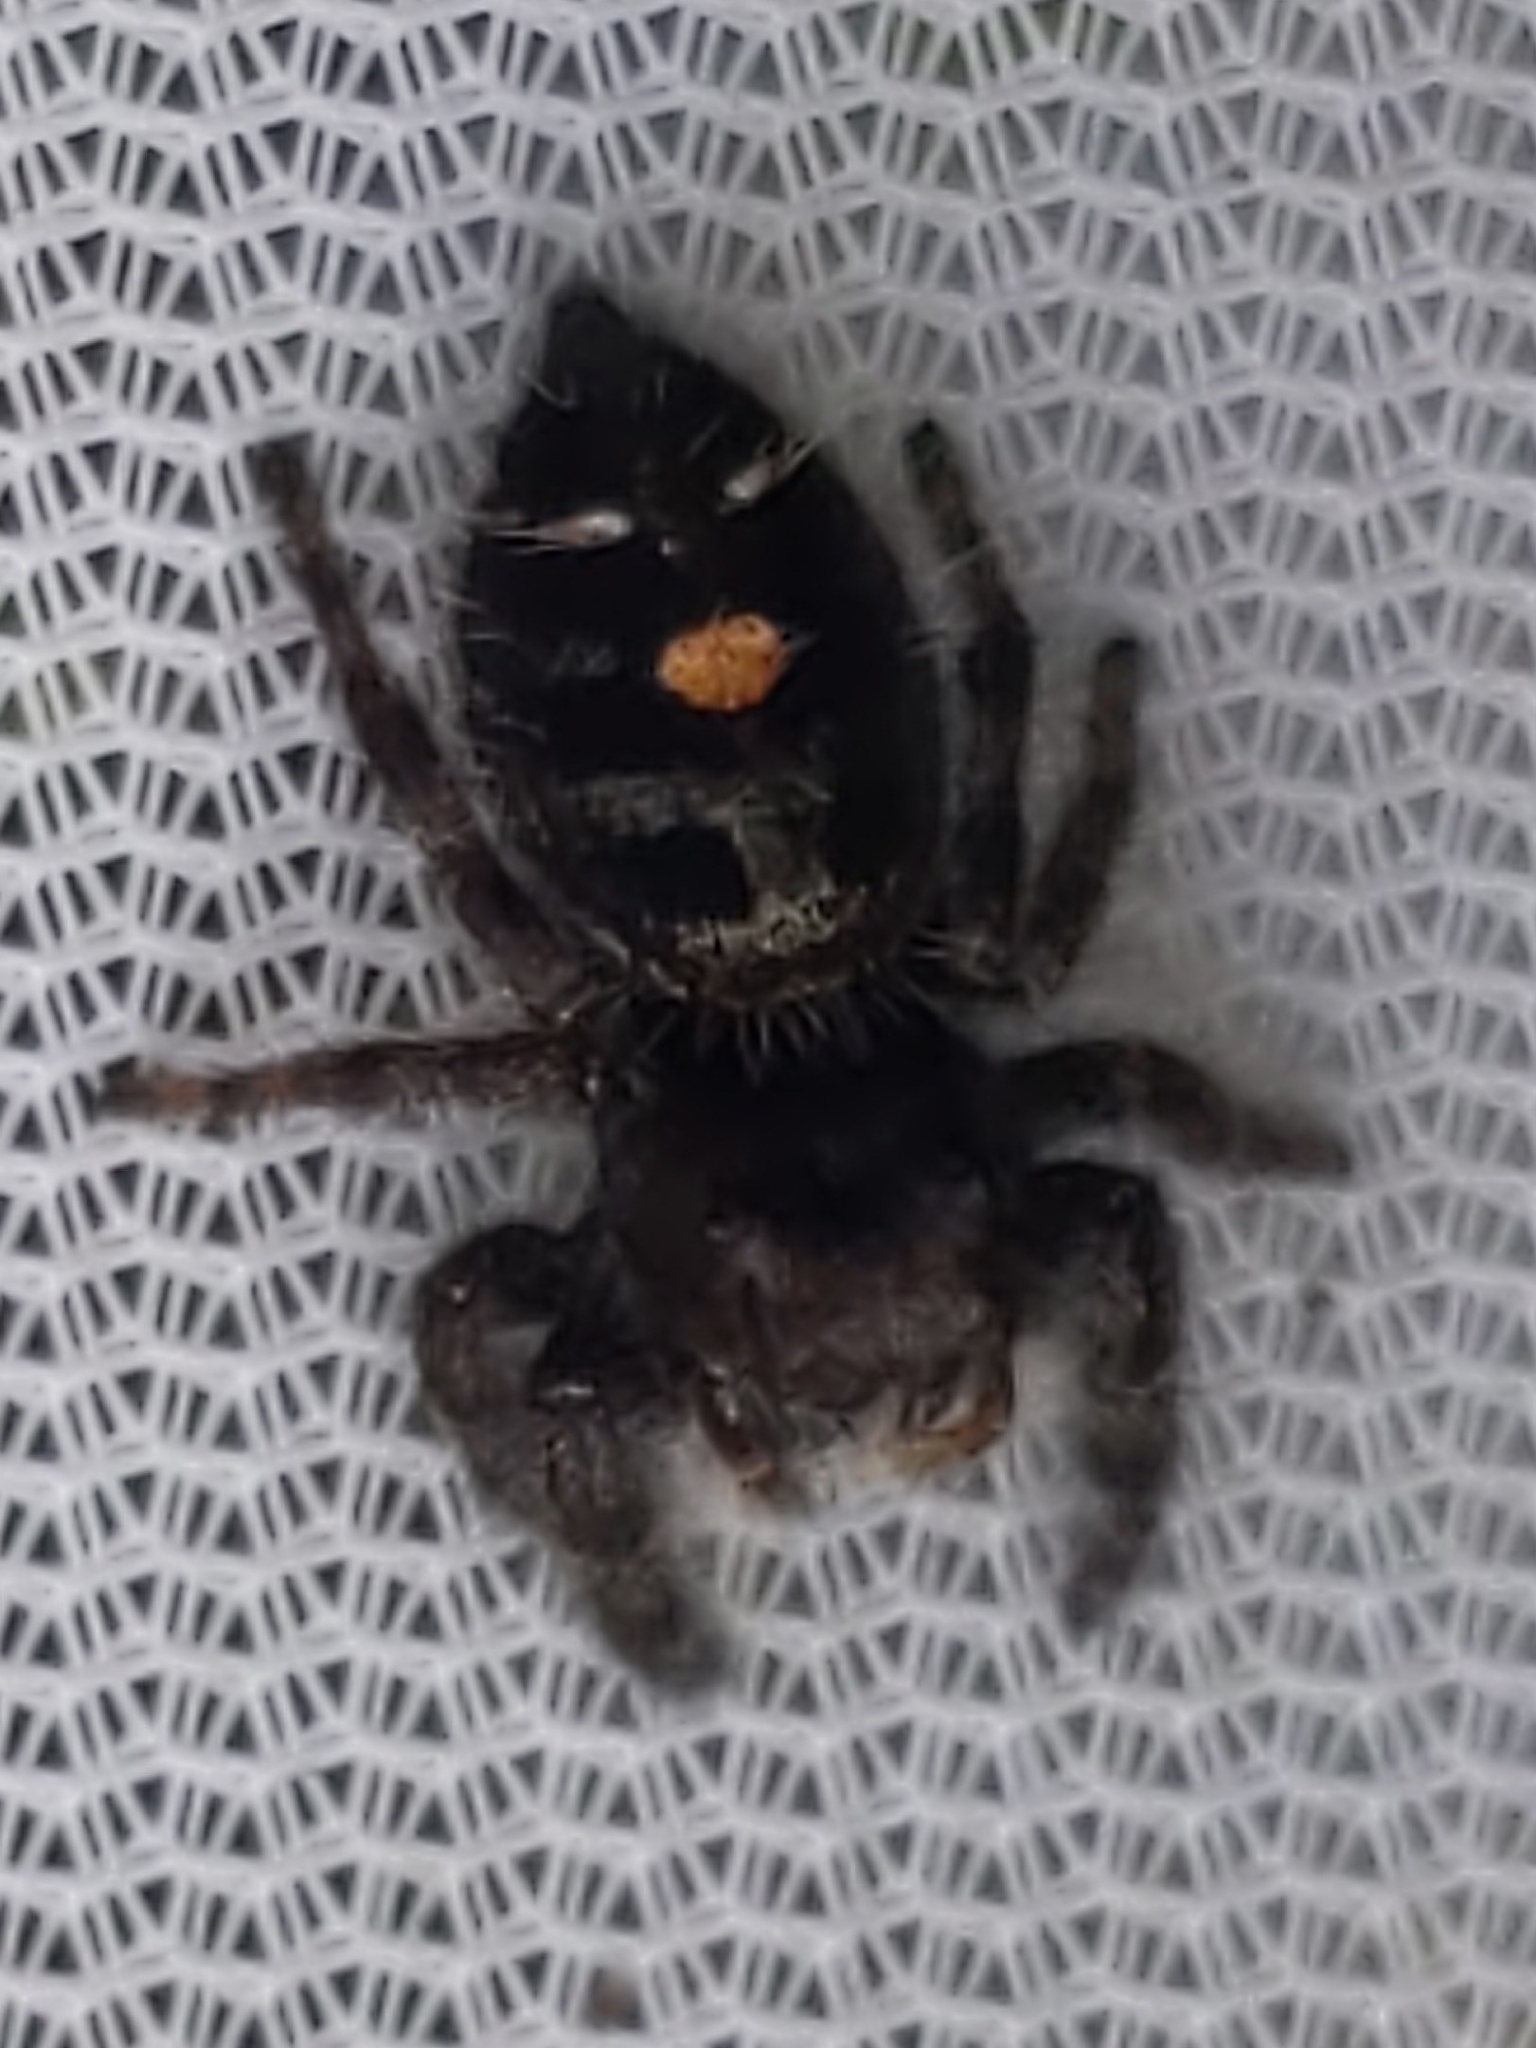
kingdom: Animalia
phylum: Arthropoda
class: Arachnida
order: Araneae
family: Salticidae
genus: Phidippus
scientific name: Phidippus audax
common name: Bold jumper
